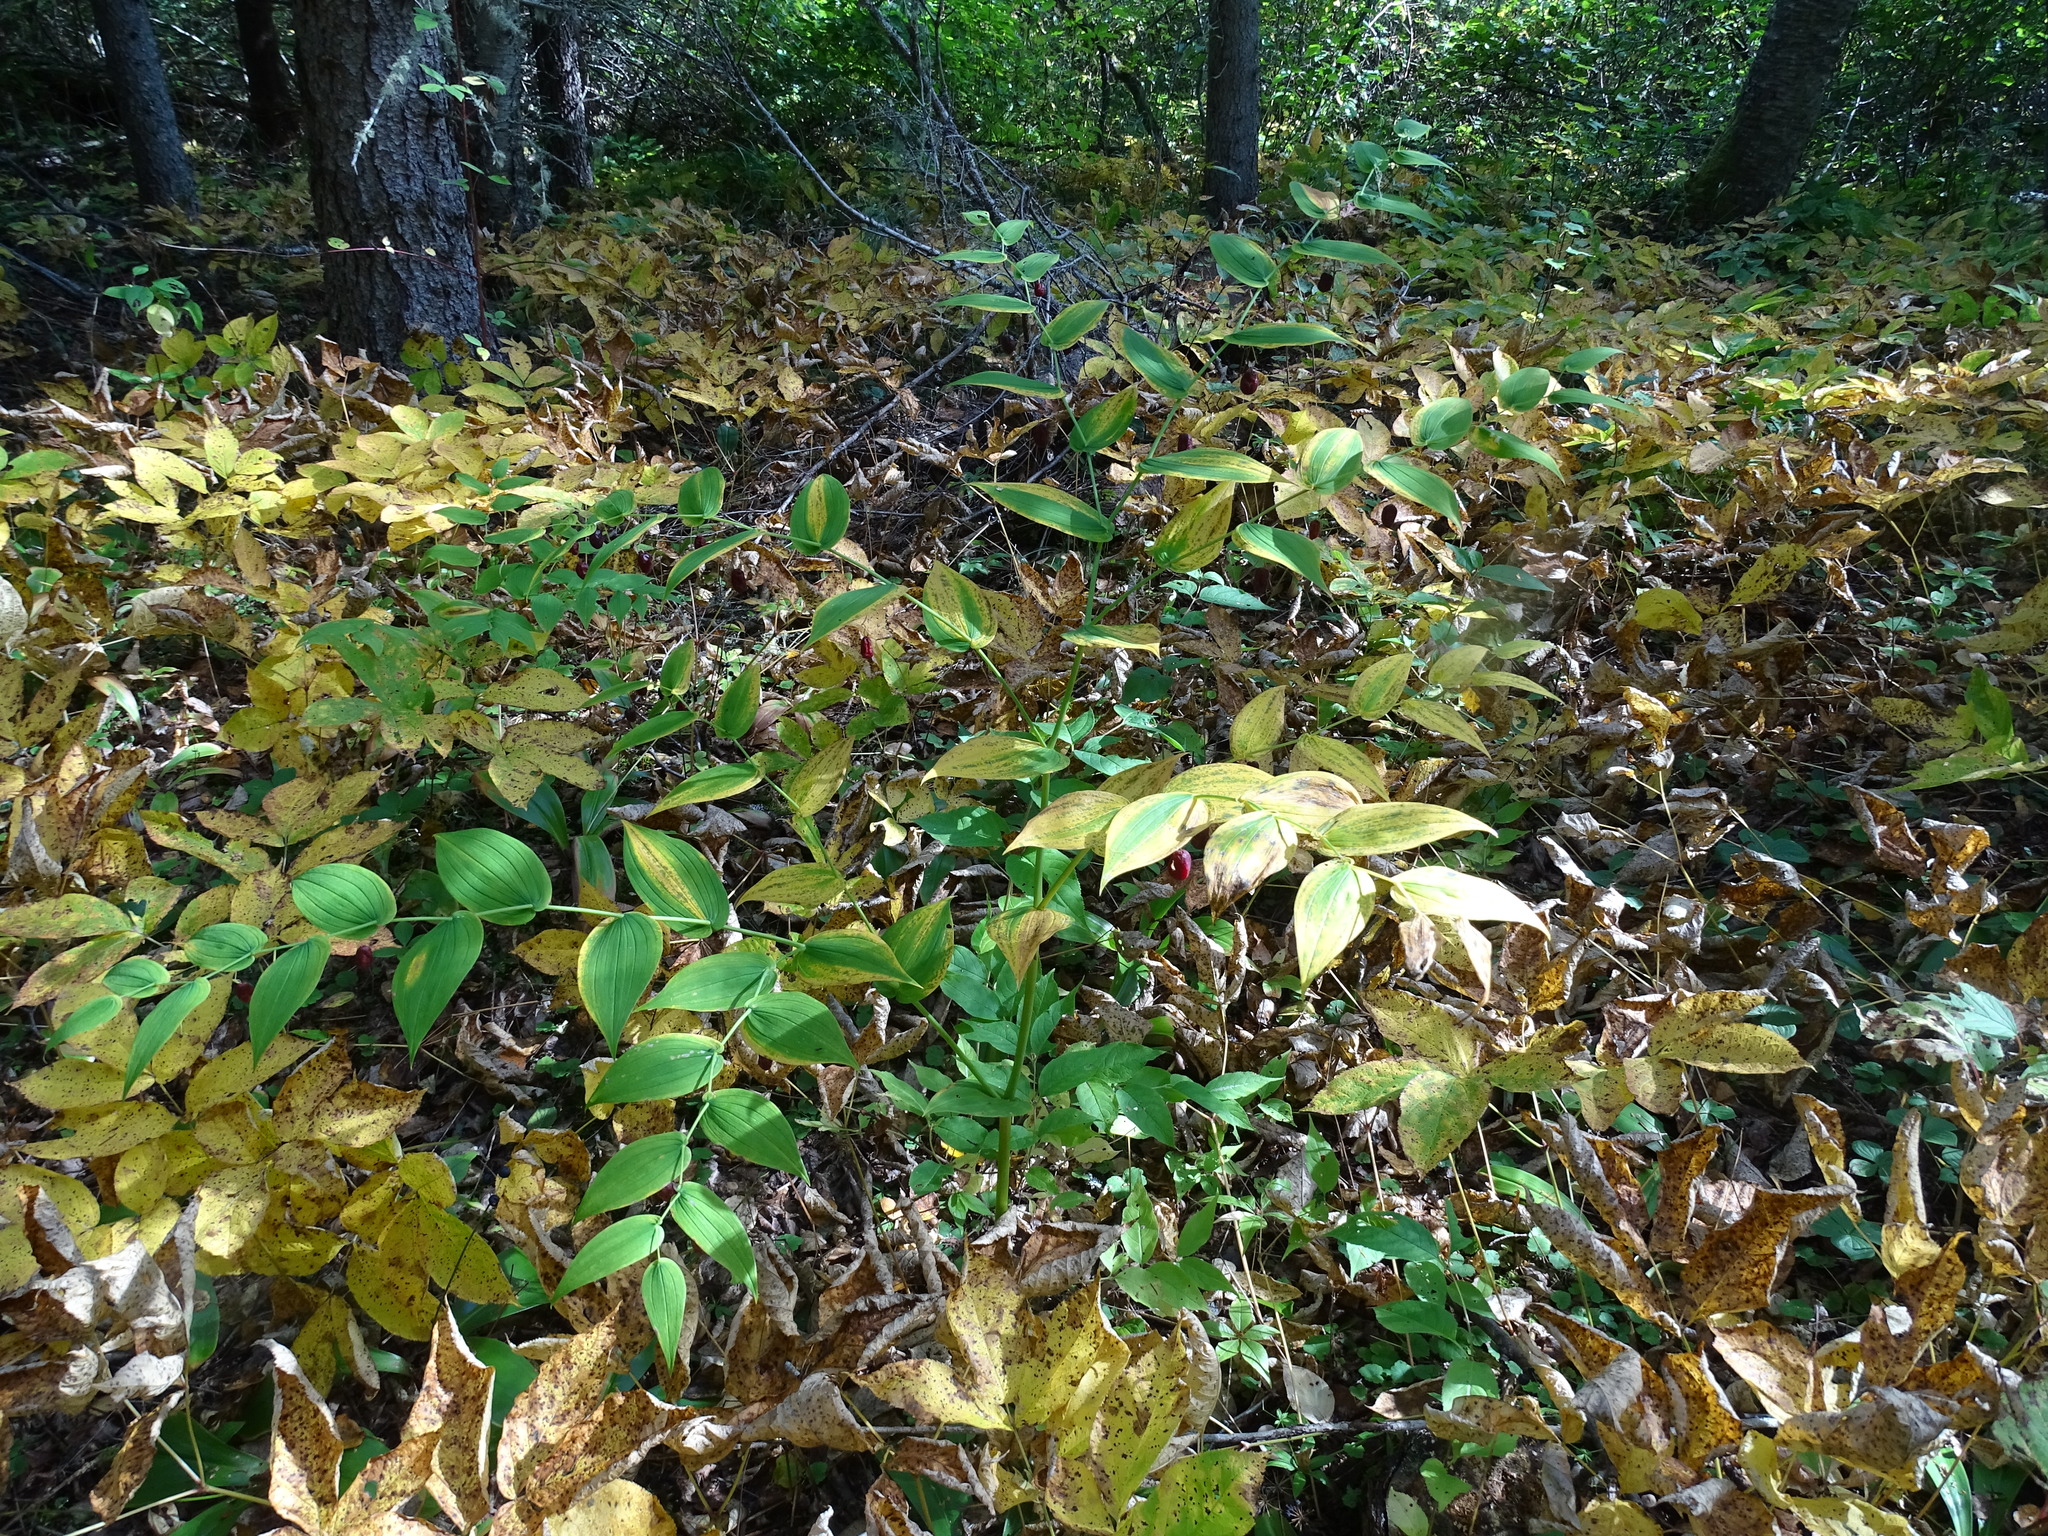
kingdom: Plantae
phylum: Tracheophyta
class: Liliopsida
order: Liliales
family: Liliaceae
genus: Streptopus
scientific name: Streptopus amplexifolius
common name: Clasp twisted stalk
